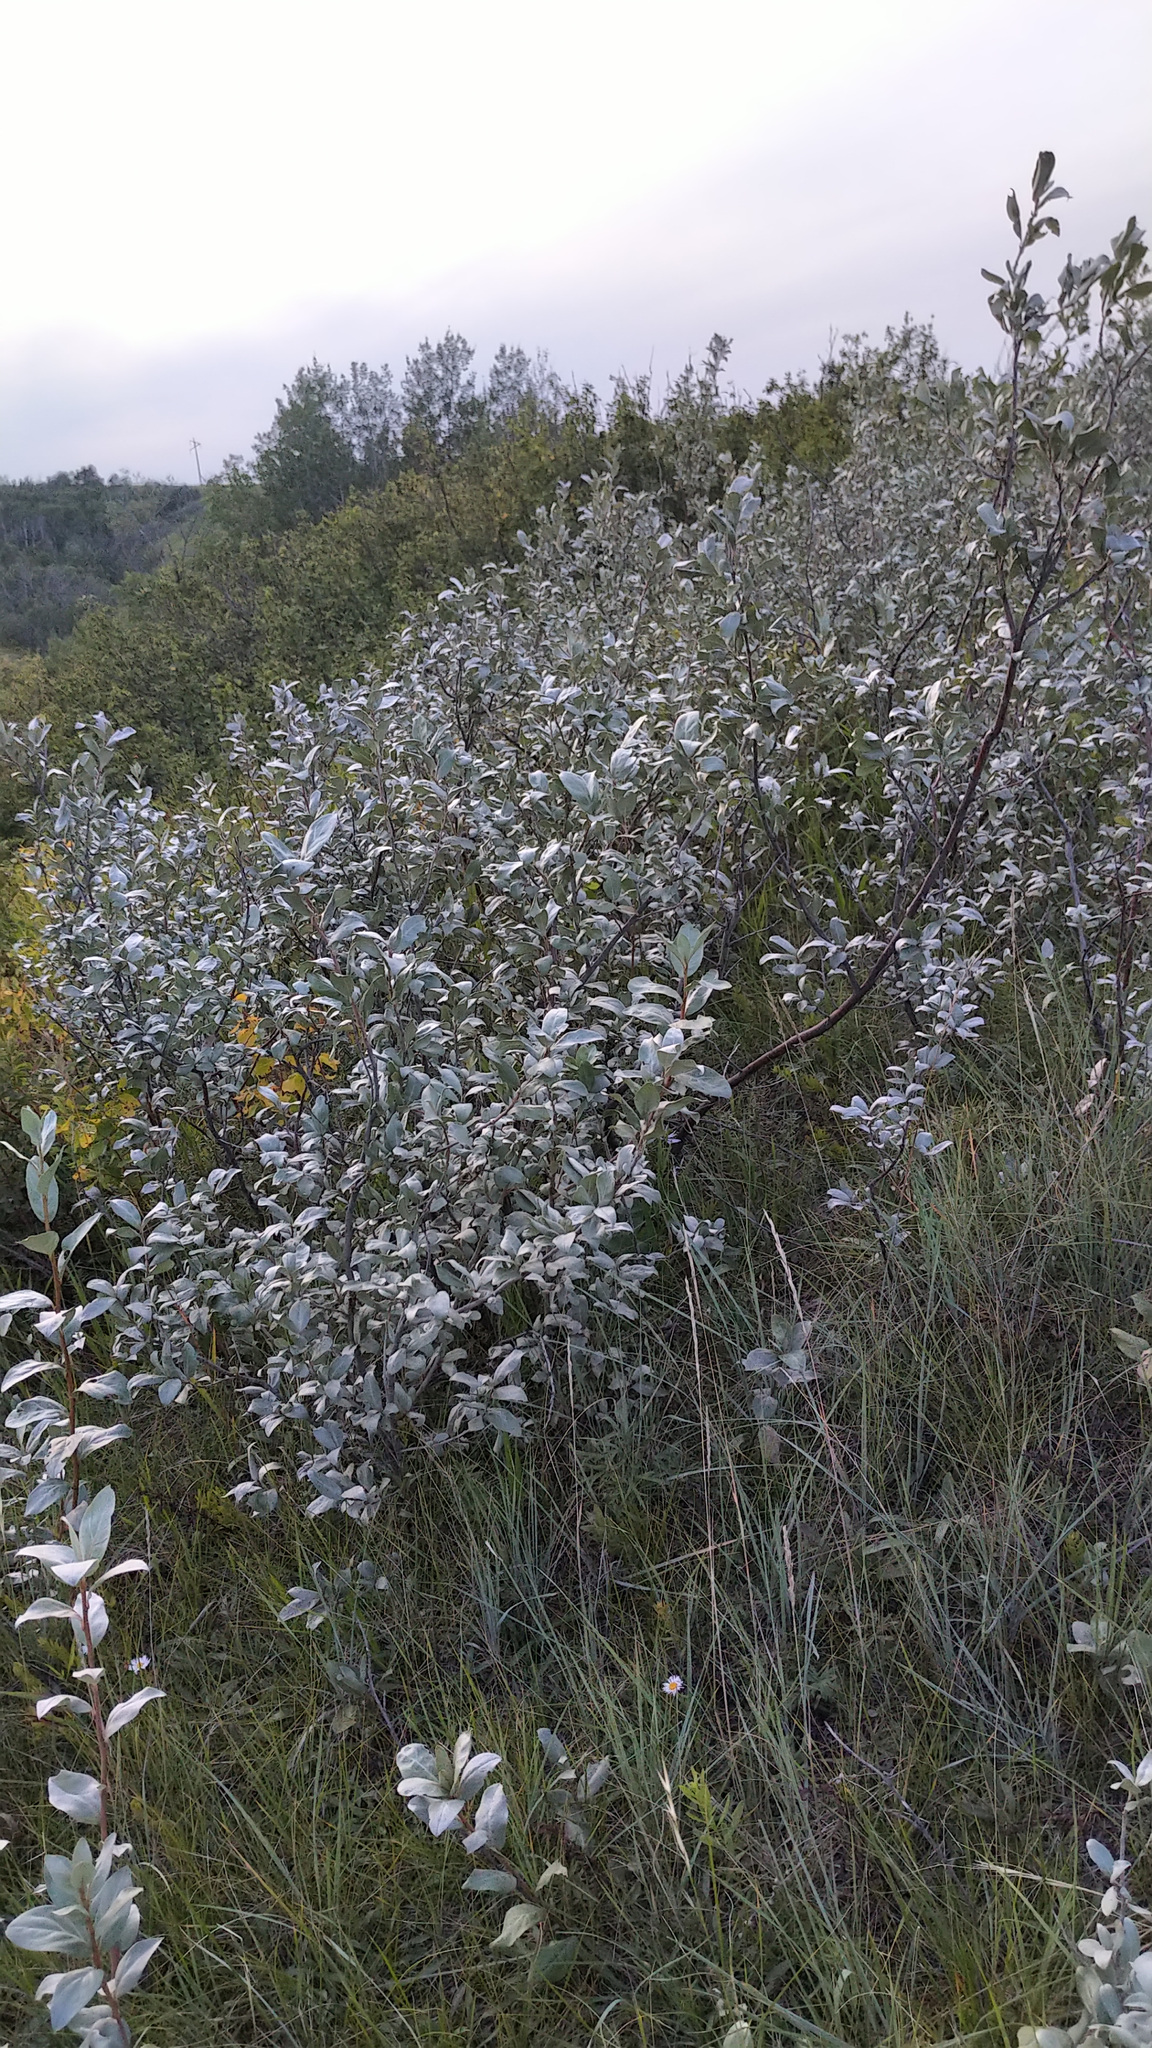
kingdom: Plantae
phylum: Tracheophyta
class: Magnoliopsida
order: Rosales
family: Elaeagnaceae
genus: Elaeagnus
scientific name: Elaeagnus commutata
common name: Silverberry
